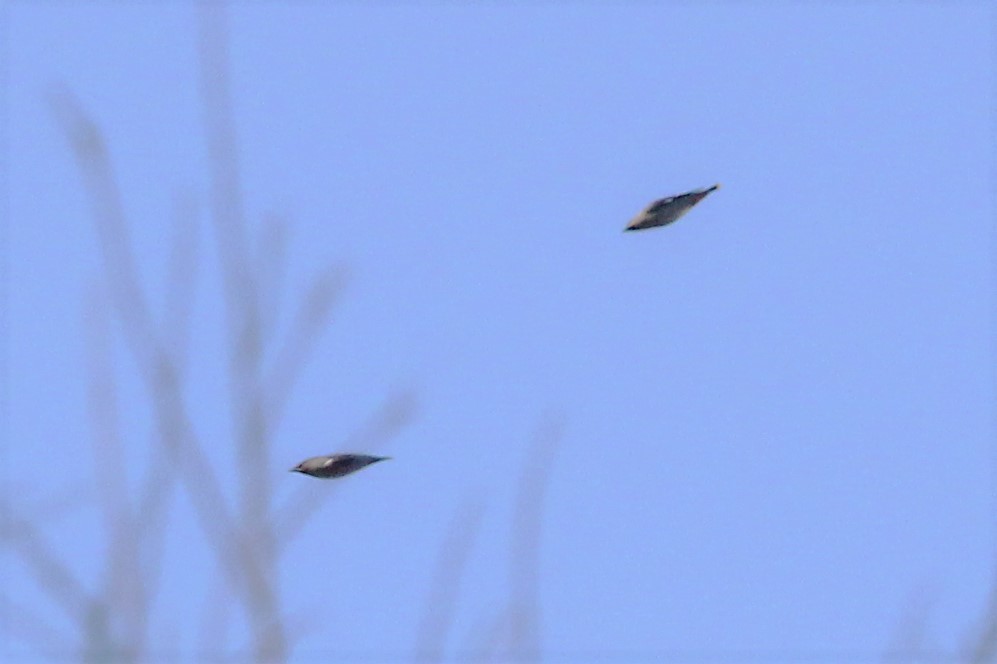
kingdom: Animalia
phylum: Chordata
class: Aves
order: Passeriformes
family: Bombycillidae
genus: Bombycilla
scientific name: Bombycilla garrulus
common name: Bohemian waxwing
